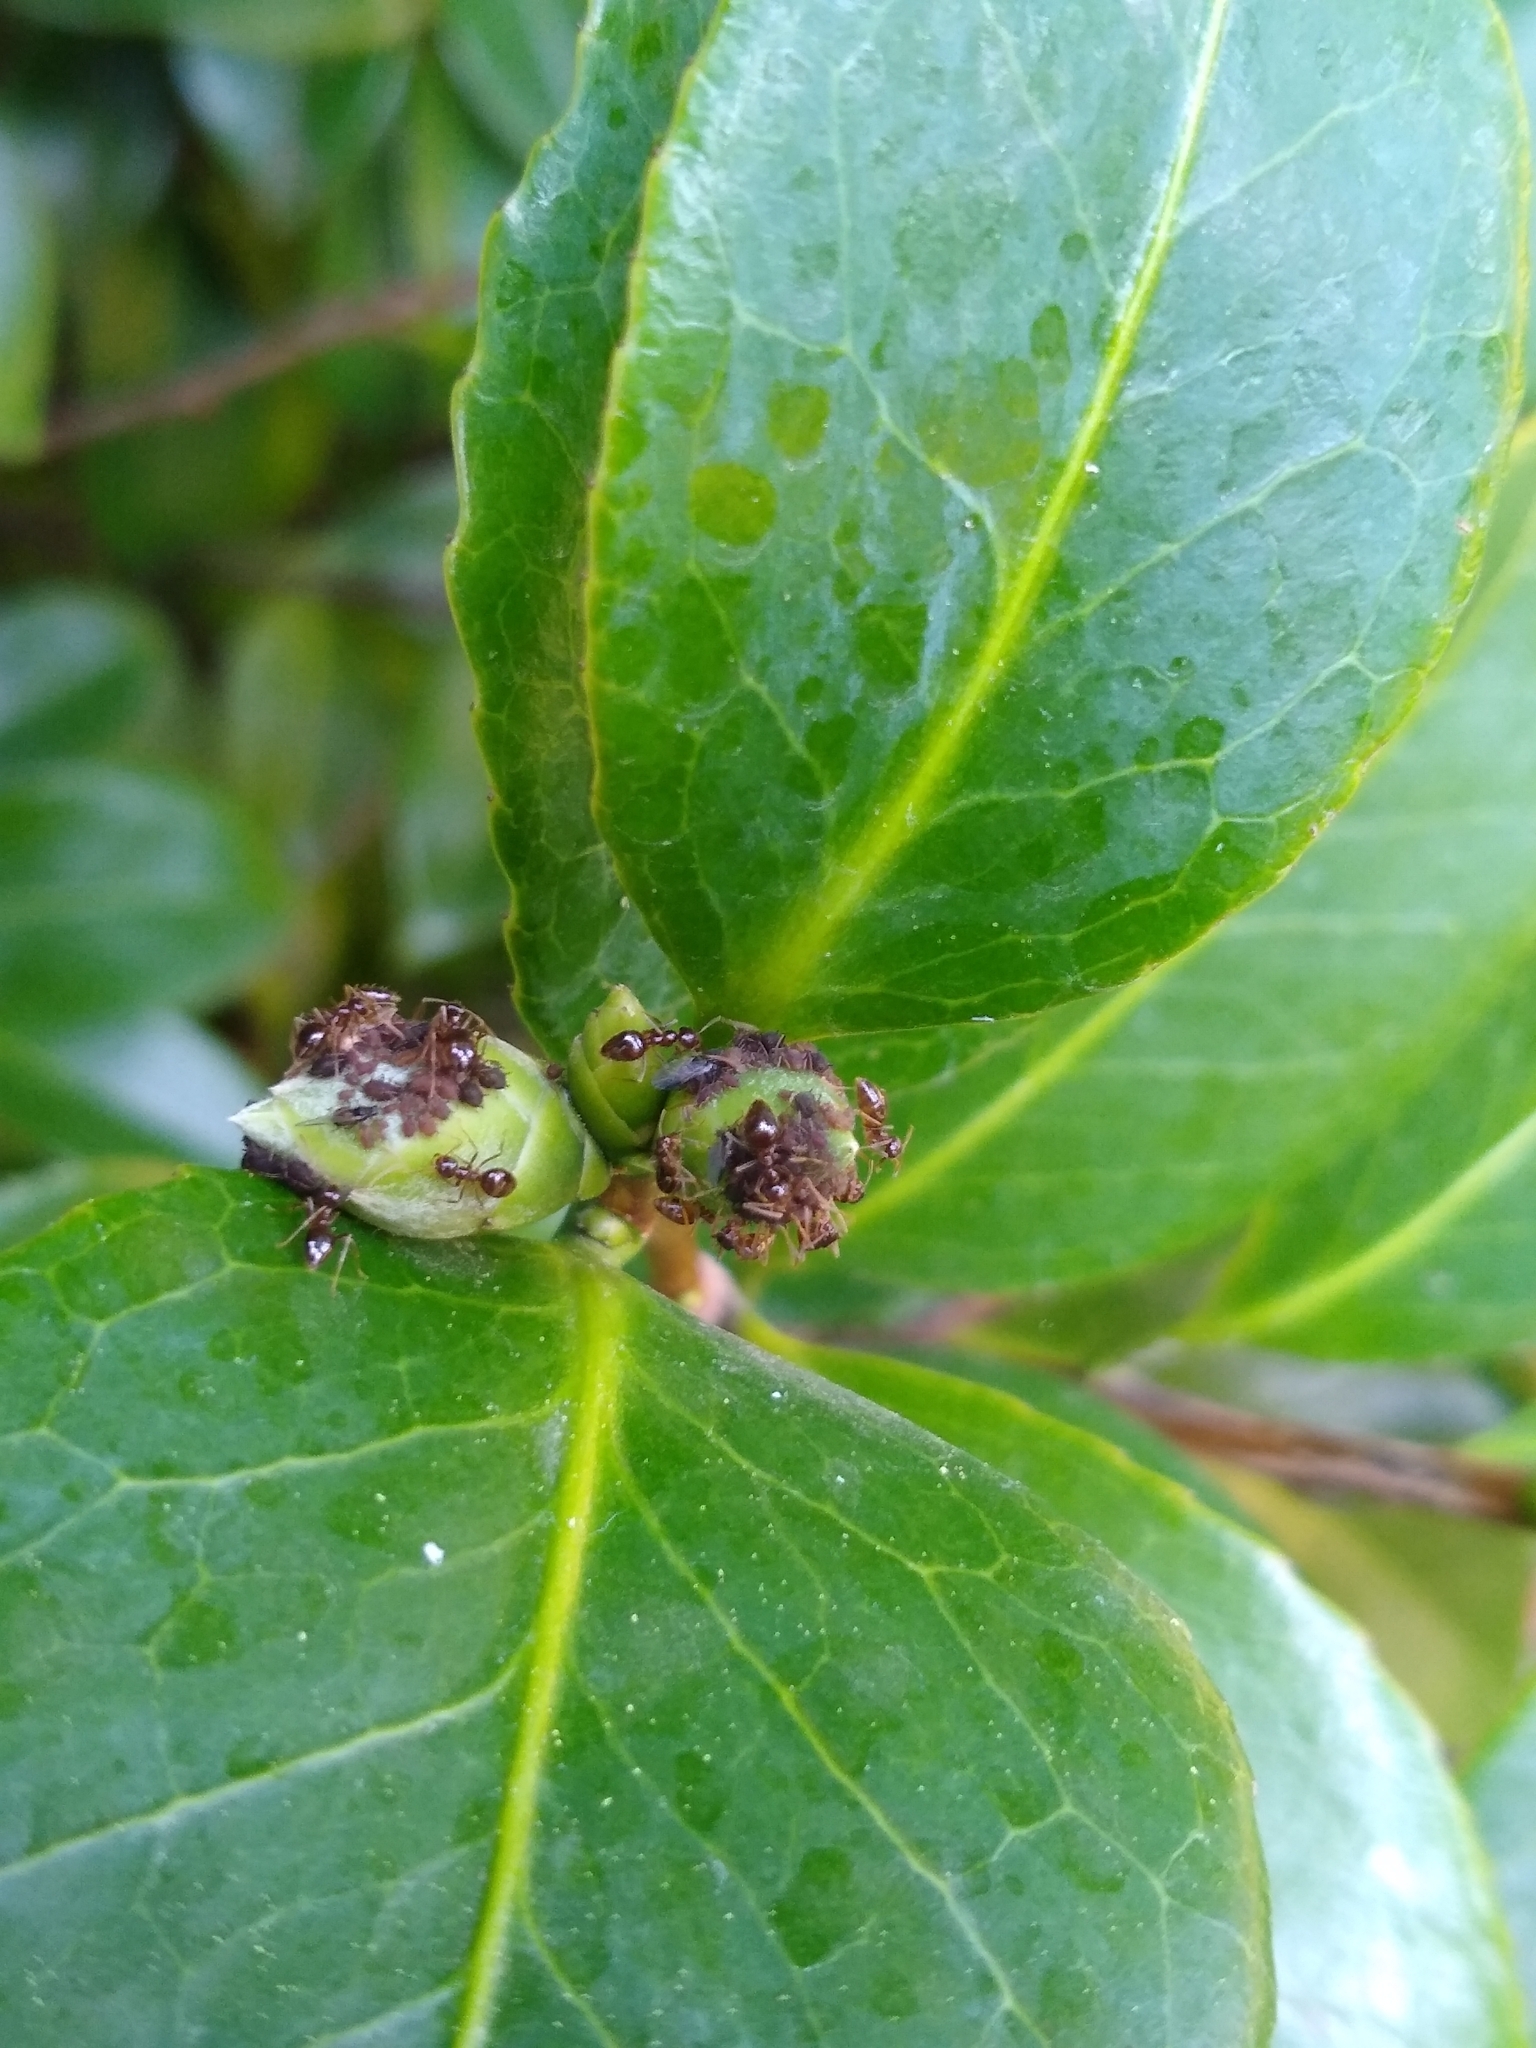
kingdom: Animalia
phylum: Arthropoda
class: Insecta
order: Hymenoptera
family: Formicidae
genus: Prenolepis
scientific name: Prenolepis imparis
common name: Small honey ant
